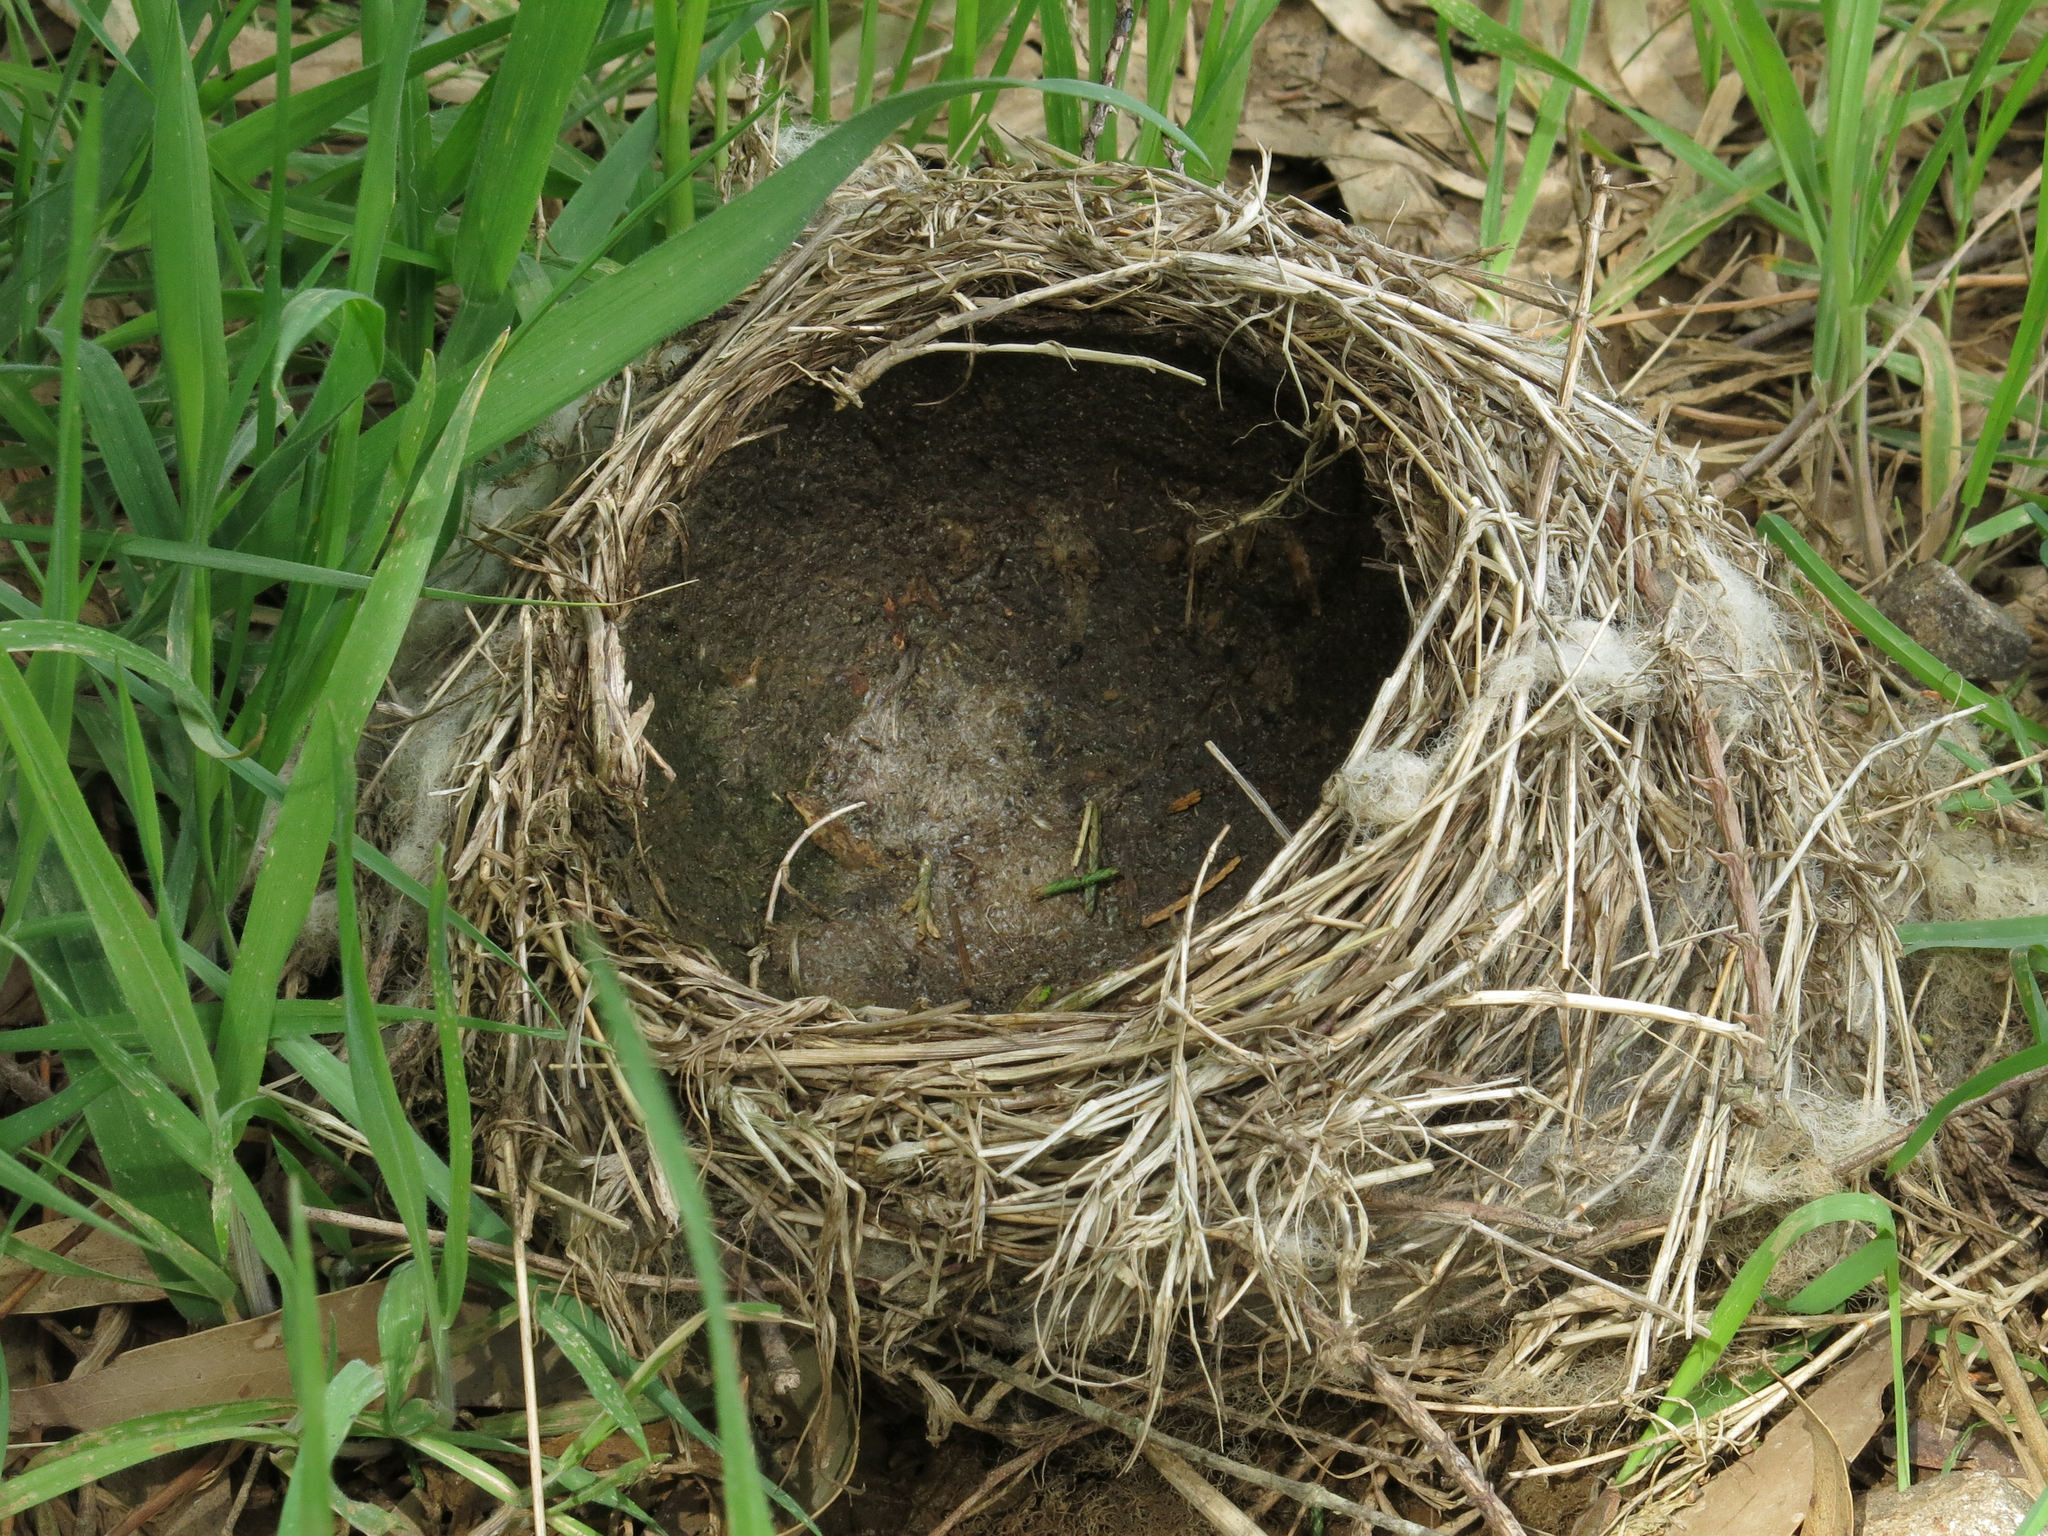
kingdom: Animalia
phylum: Chordata
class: Aves
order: Passeriformes
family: Turdidae
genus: Turdus
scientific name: Turdus philomelos
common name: Song thrush
